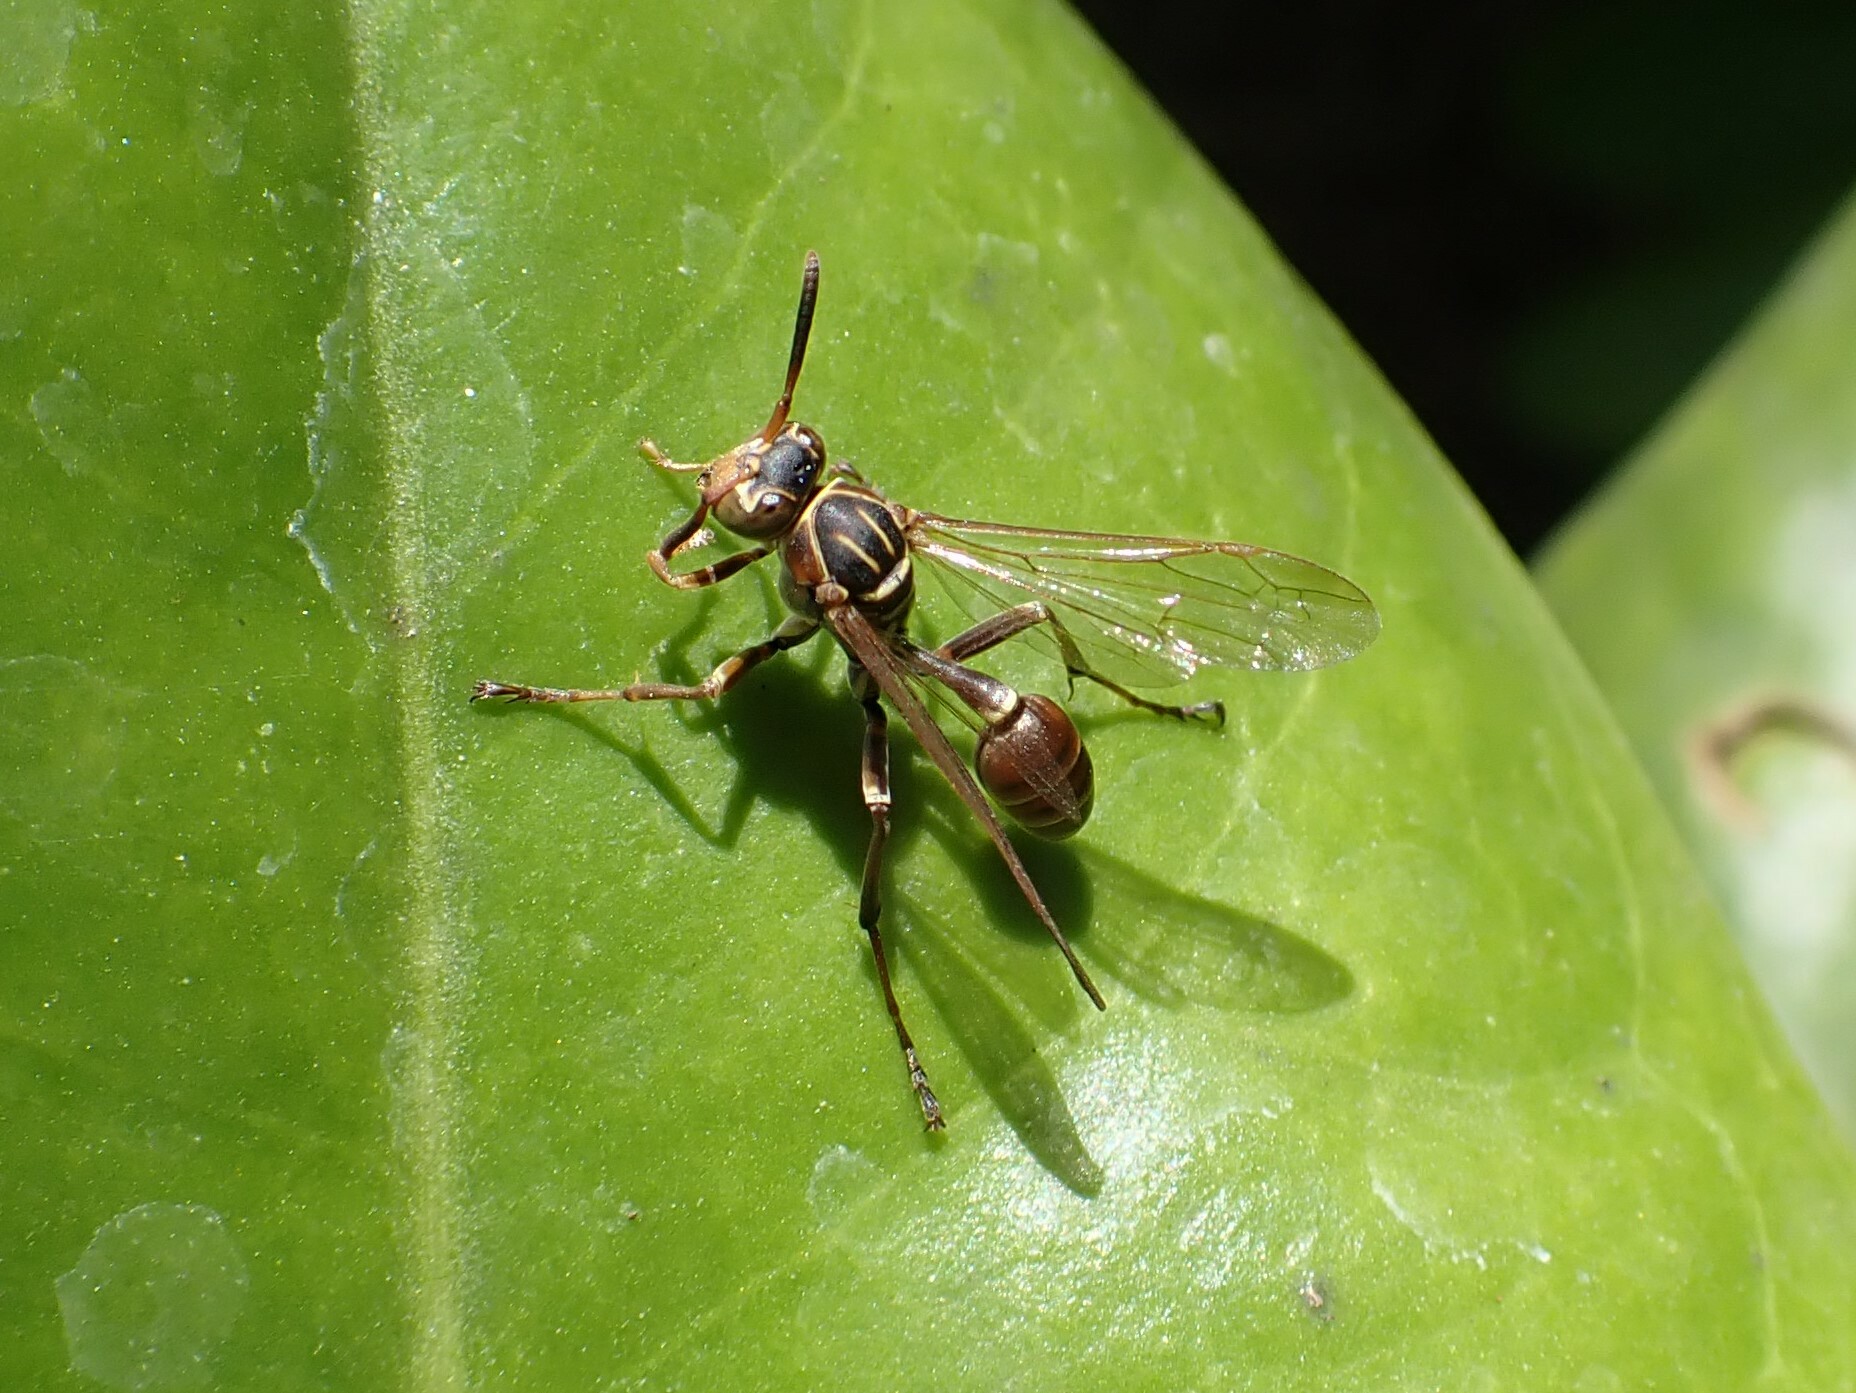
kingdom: Animalia
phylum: Arthropoda
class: Insecta
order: Hymenoptera
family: Vespidae
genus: Mischocyttarus
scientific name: Mischocyttarus mexicanus
